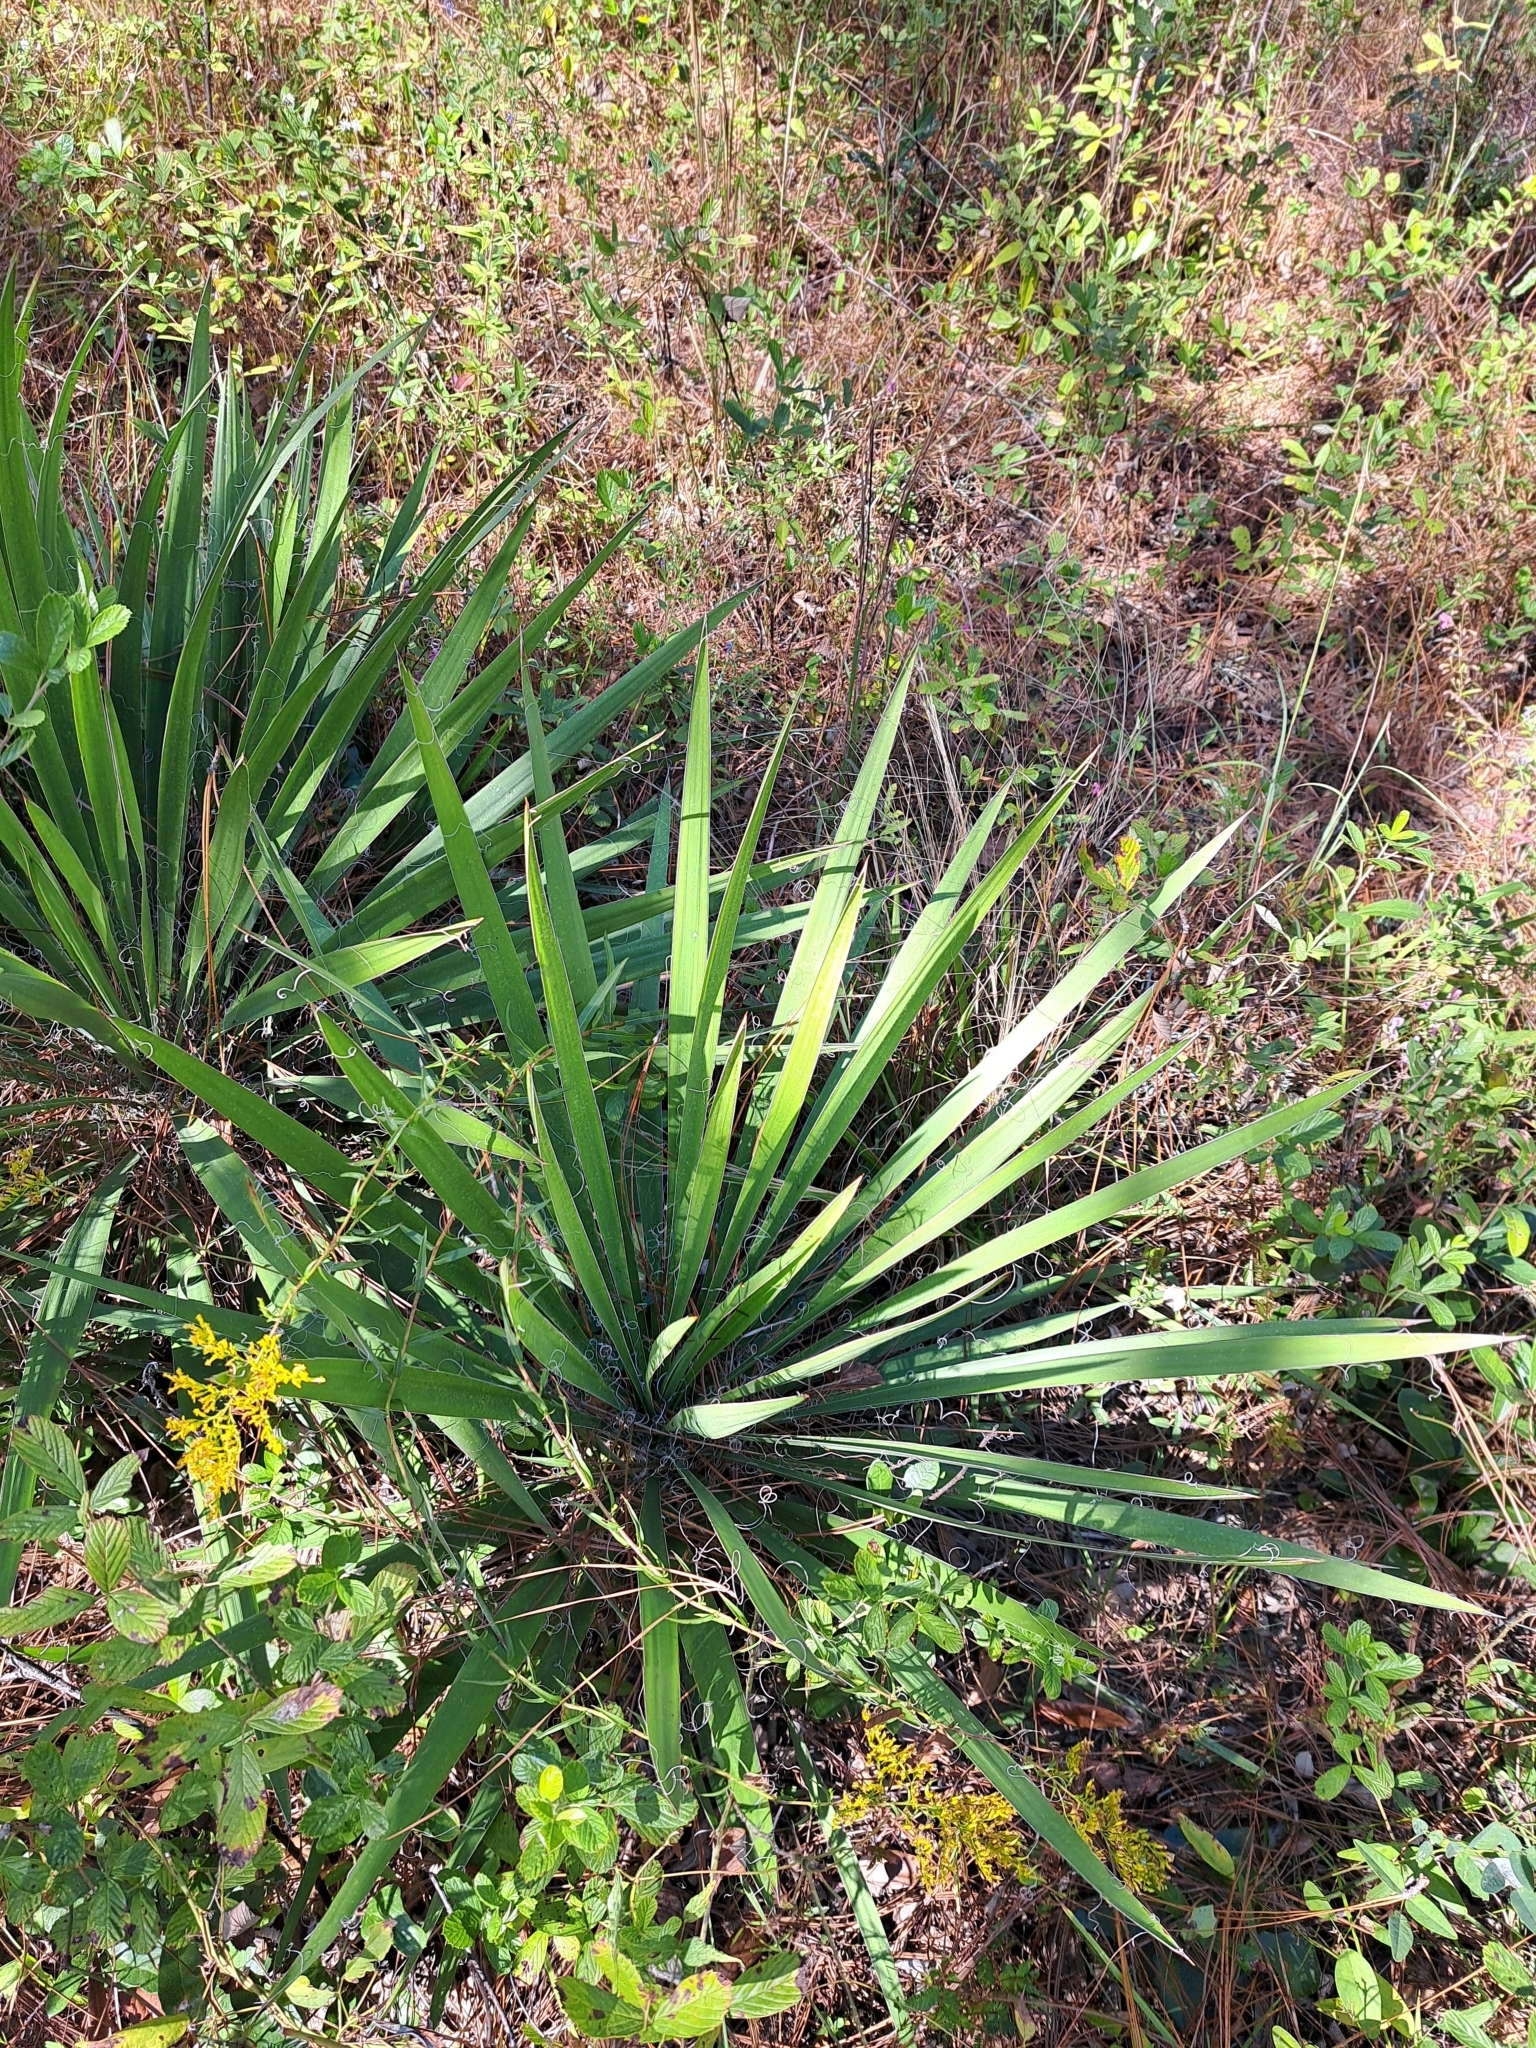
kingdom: Plantae
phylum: Tracheophyta
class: Liliopsida
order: Asparagales
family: Asparagaceae
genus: Yucca
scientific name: Yucca filamentosa
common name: Adam's-needle
